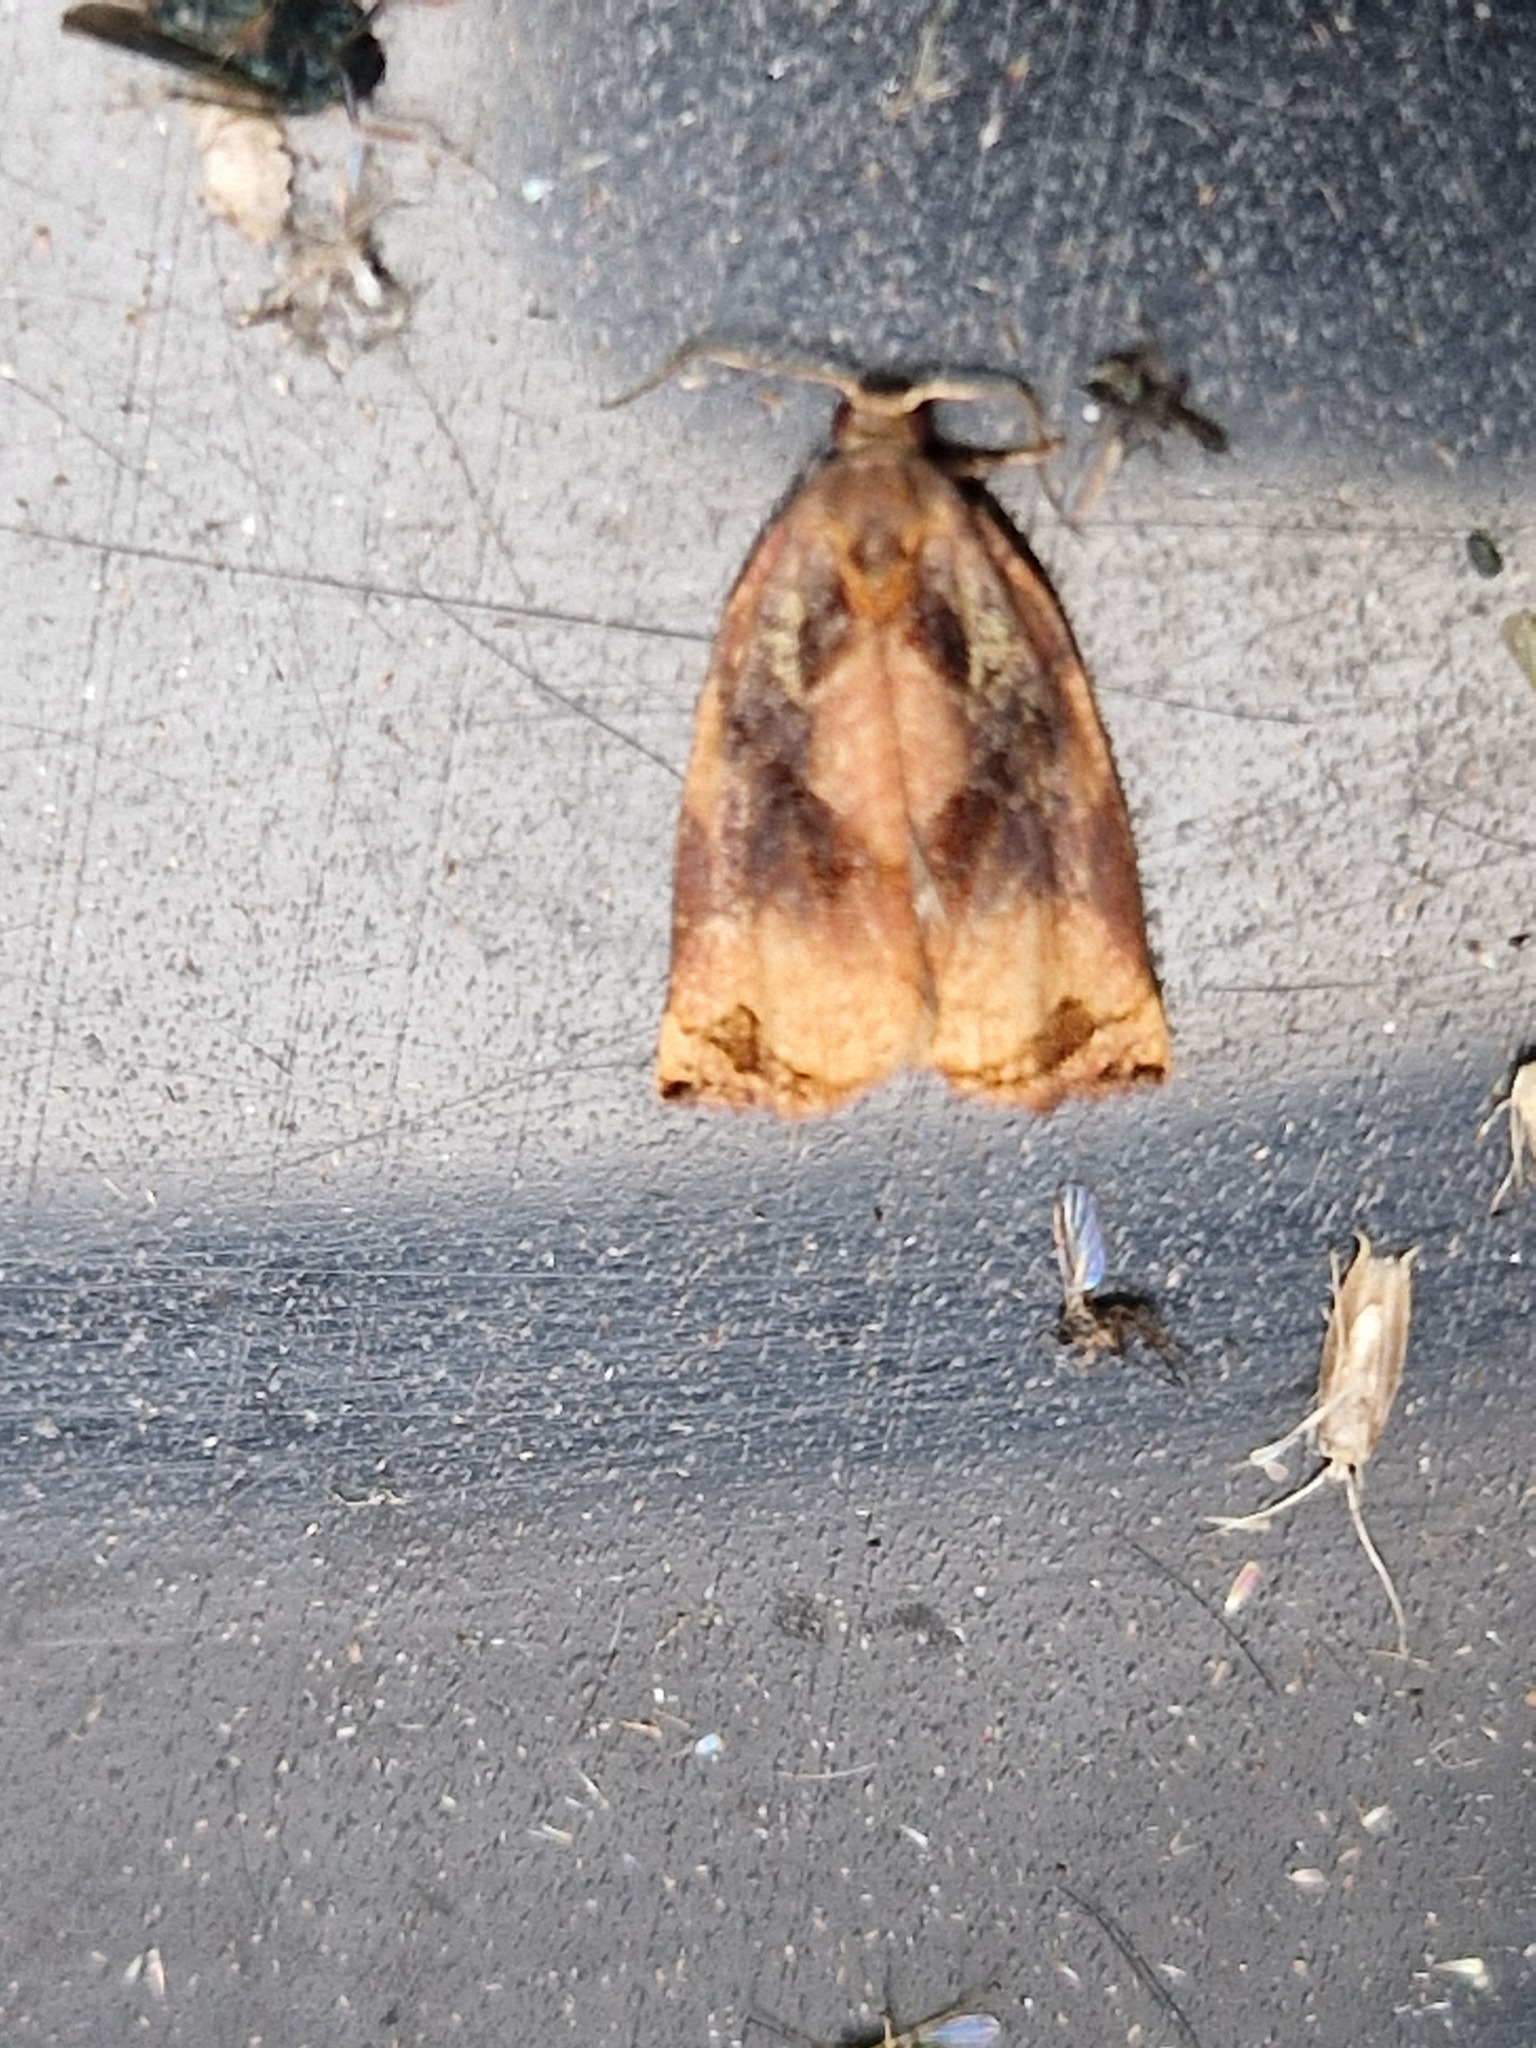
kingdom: Animalia
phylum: Arthropoda
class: Insecta
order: Lepidoptera
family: Tortricidae
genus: Archips
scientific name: Archips podana
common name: Large fruit-tree tortrix
